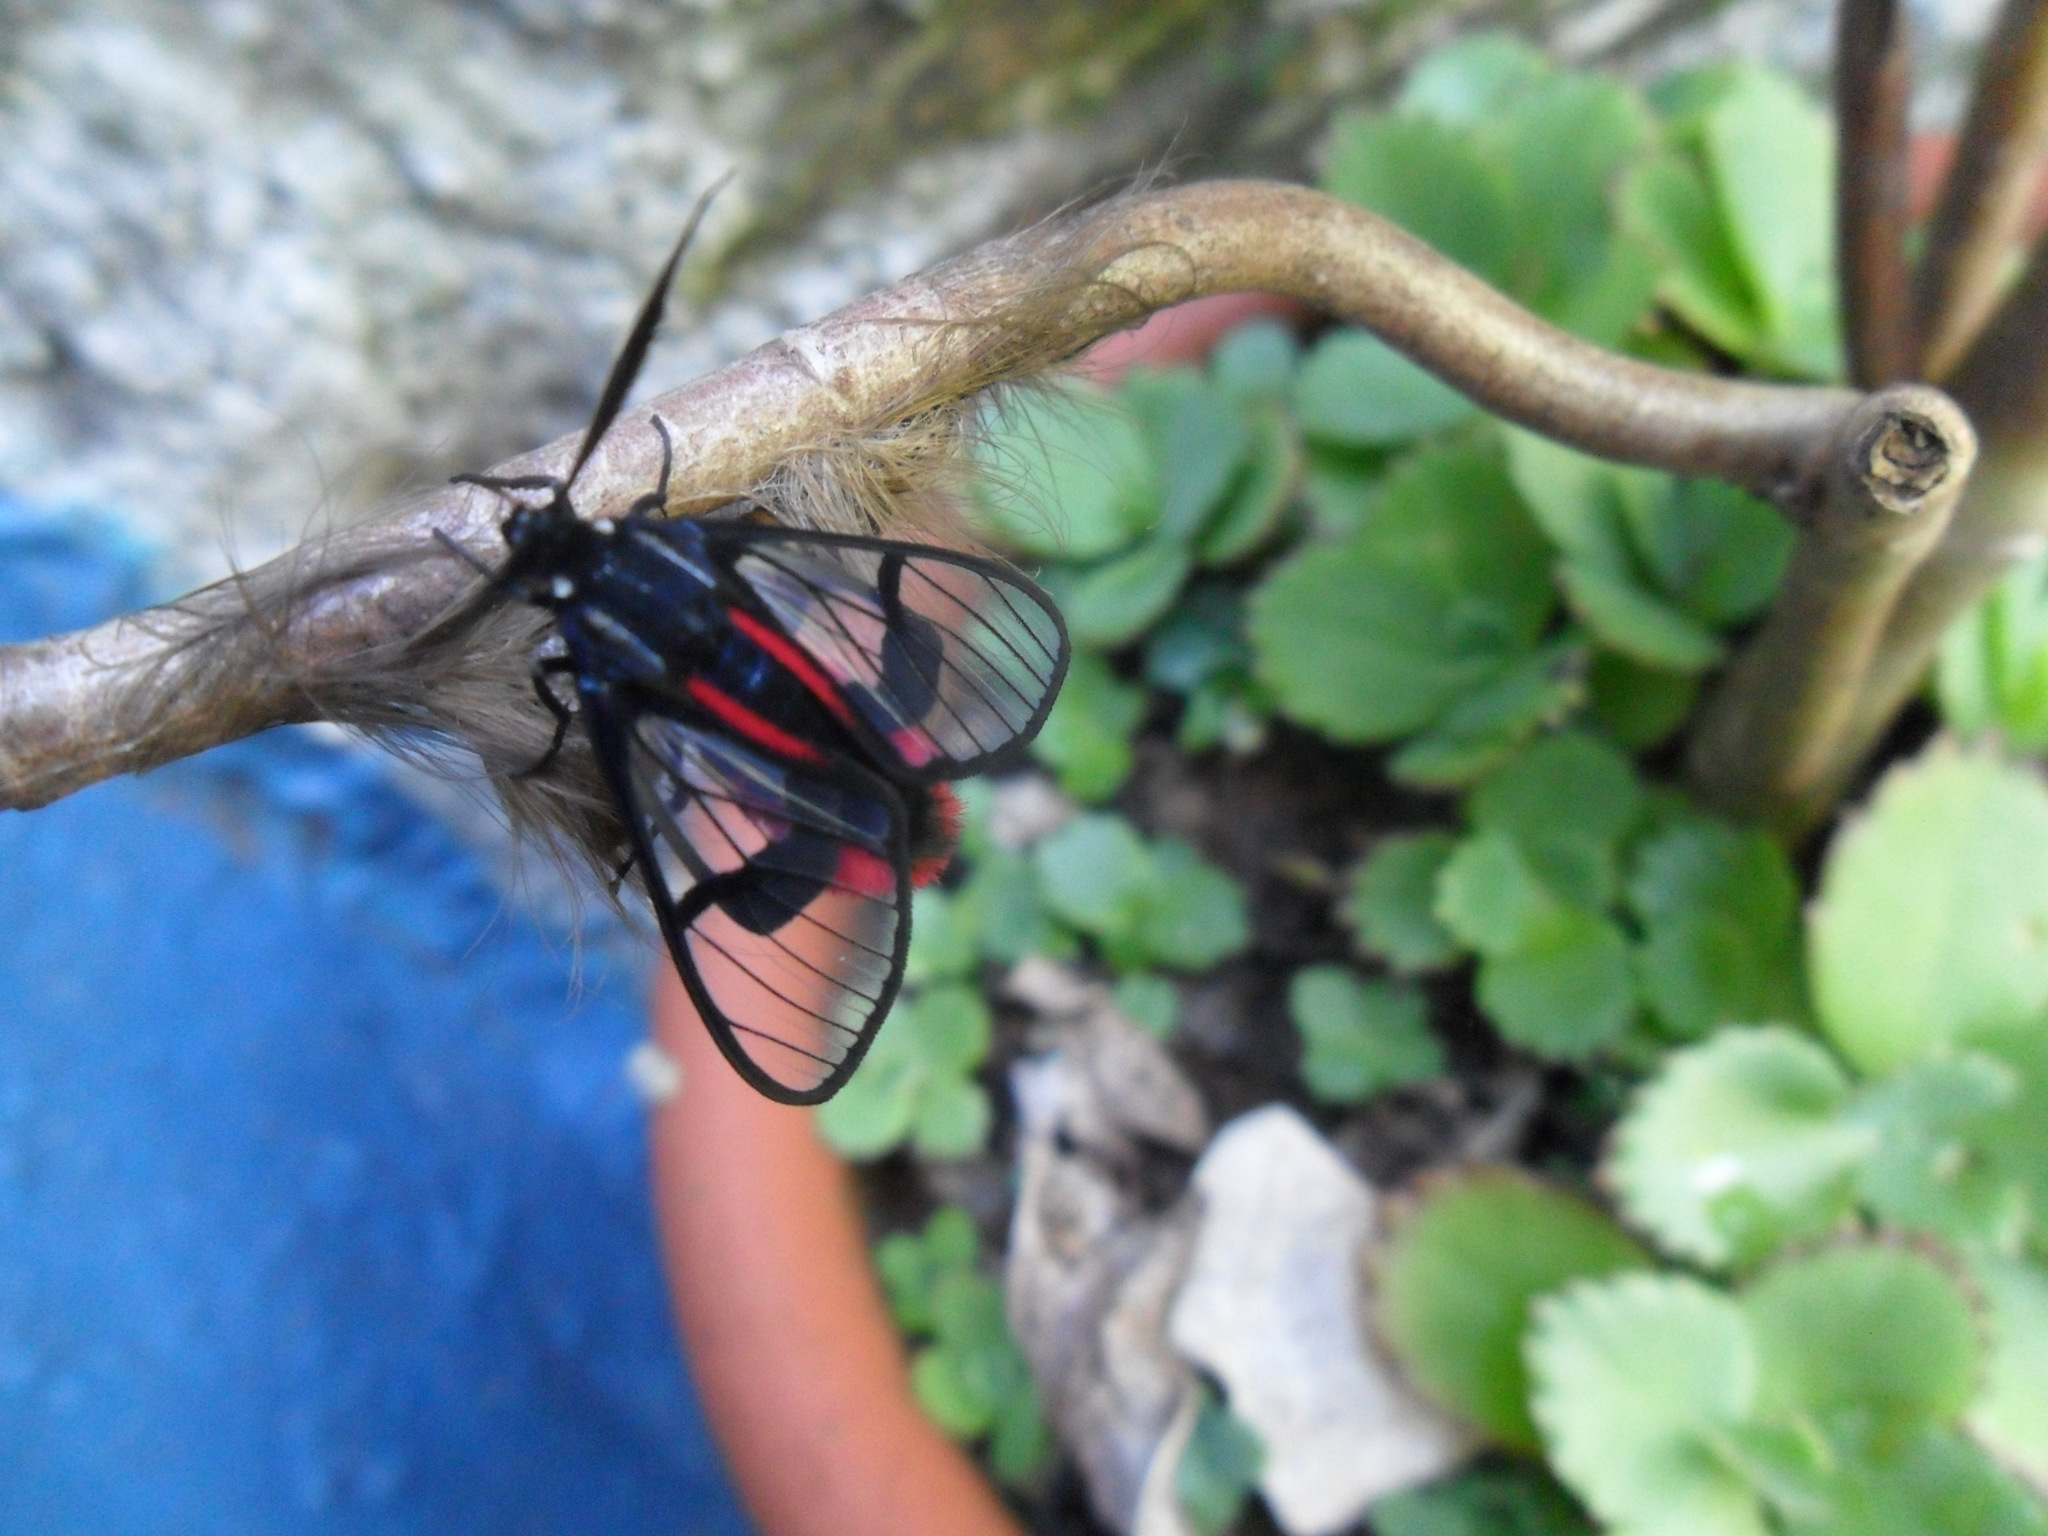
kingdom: Animalia
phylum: Arthropoda
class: Insecta
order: Lepidoptera
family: Erebidae
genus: Dinia
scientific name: Dinia eagrus
